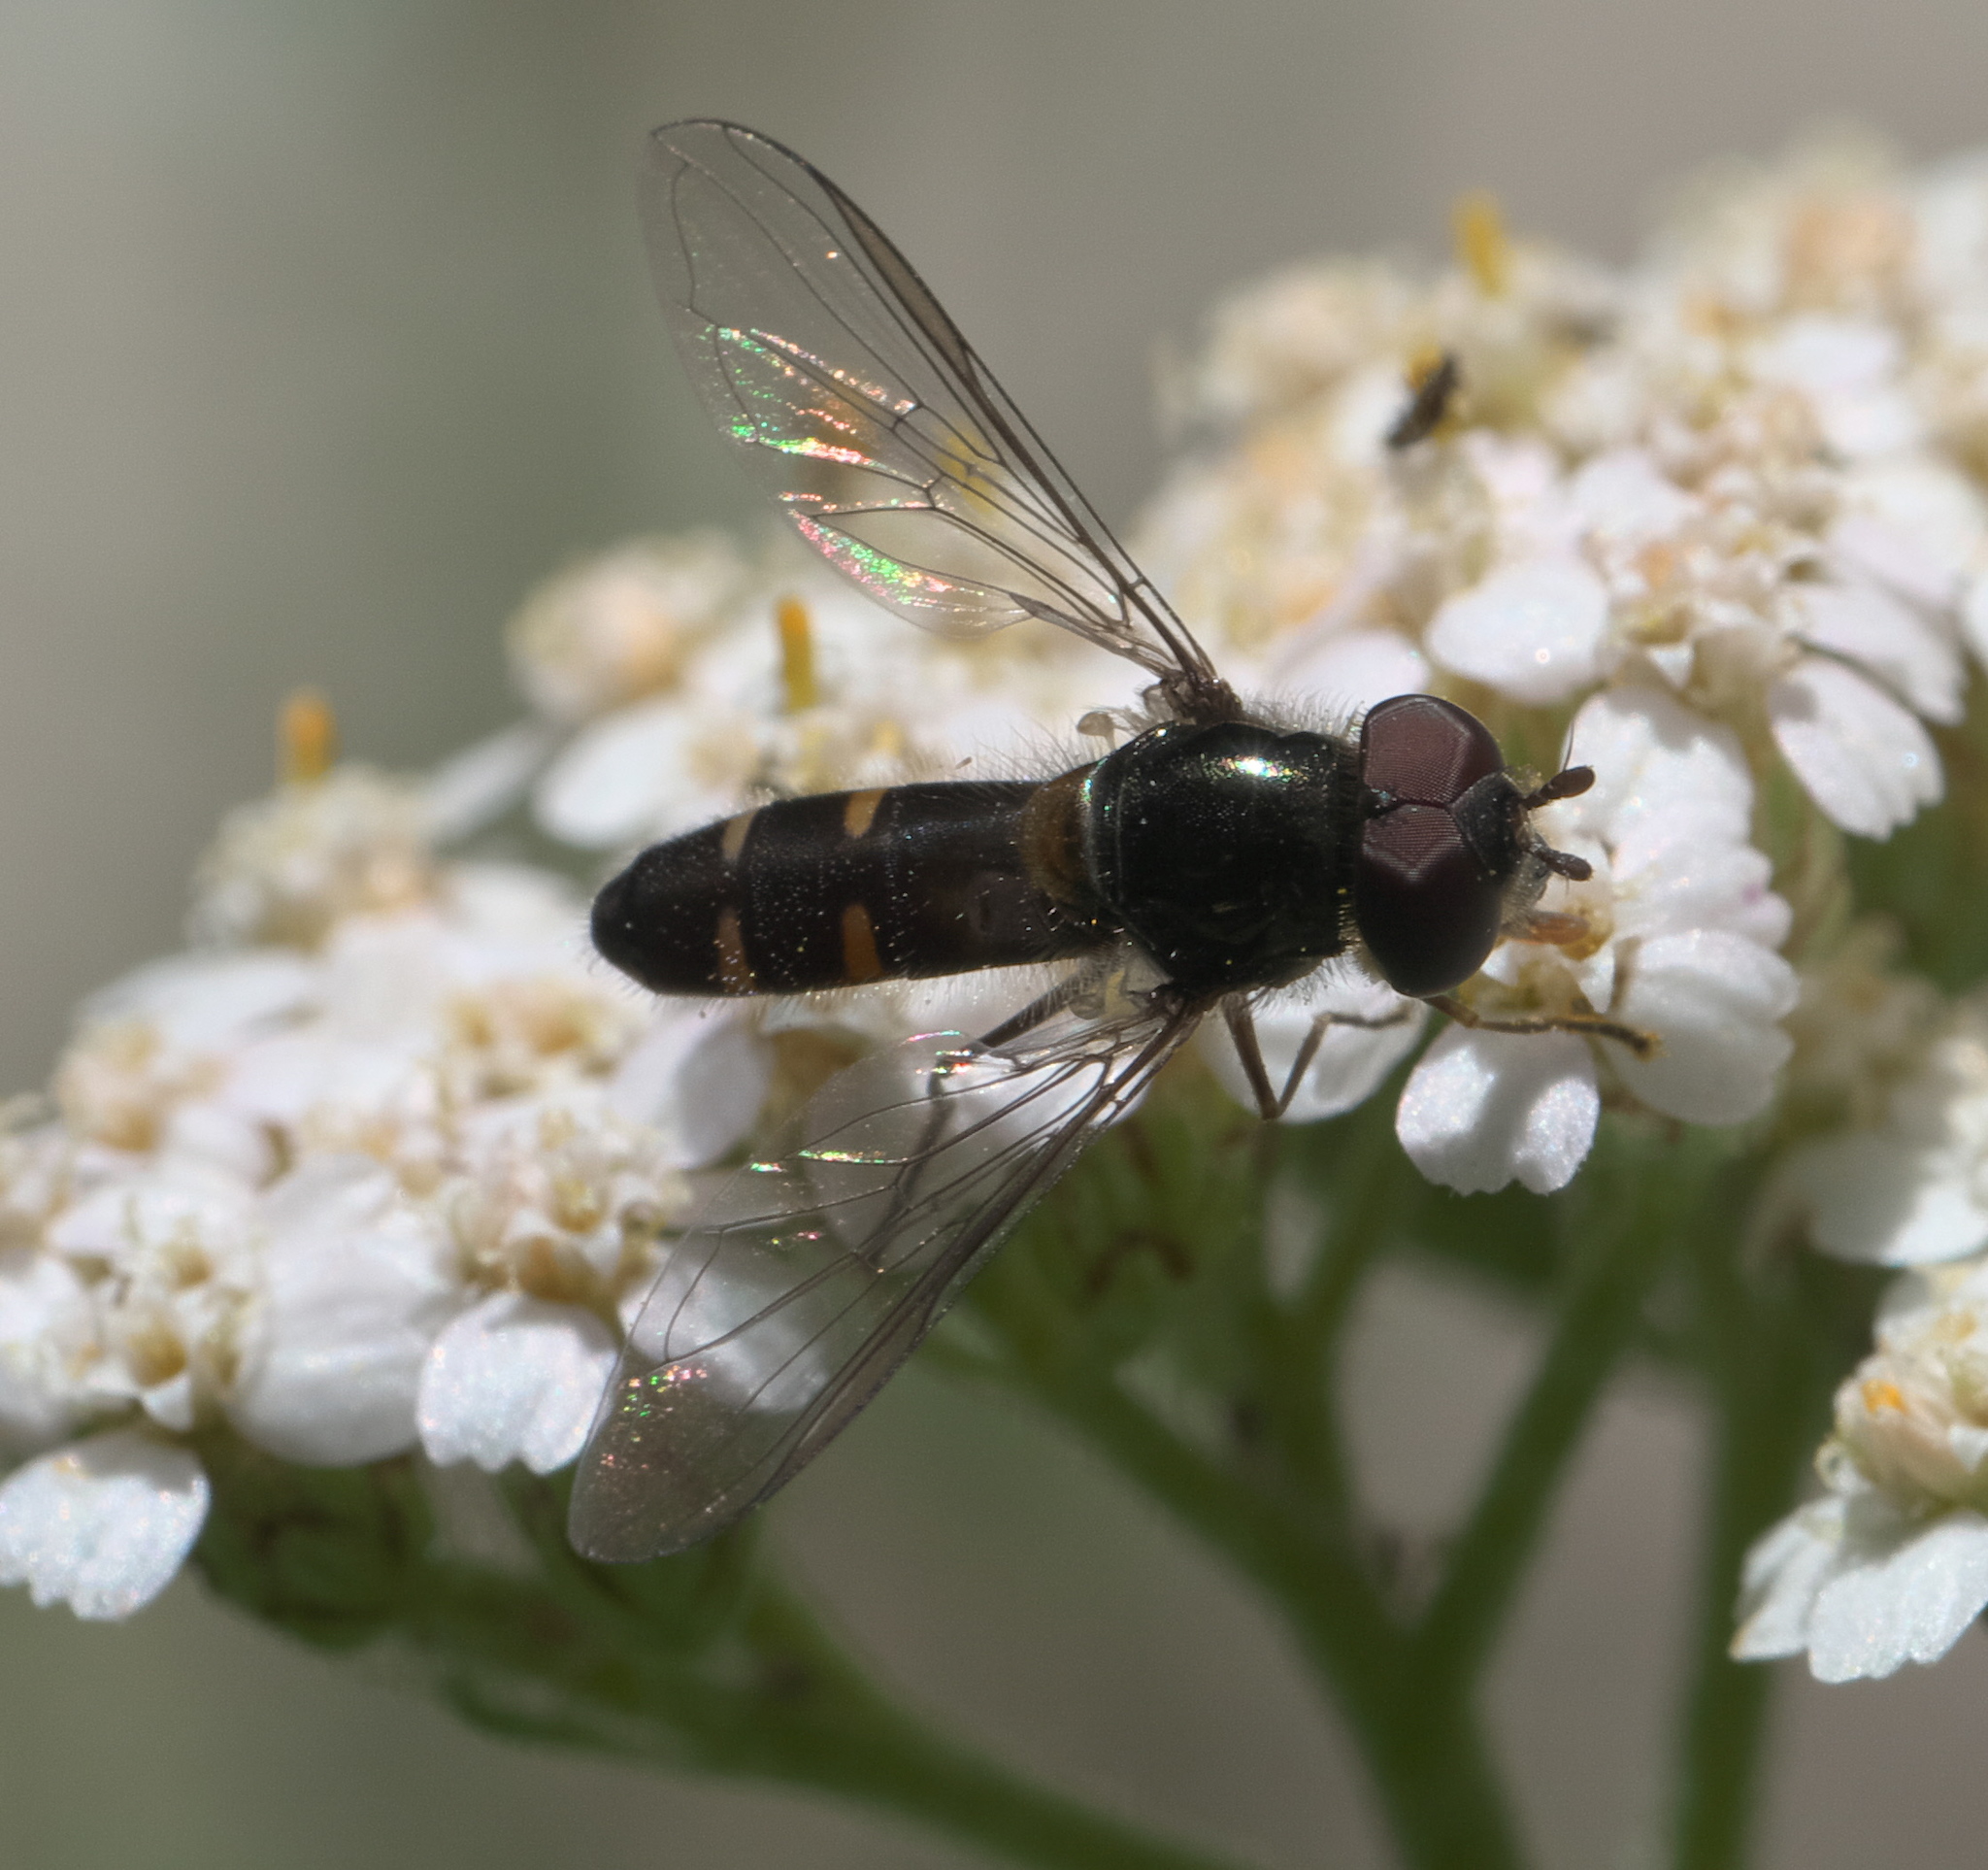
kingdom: Animalia
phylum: Arthropoda
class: Insecta
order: Diptera
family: Syrphidae
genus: Melangyna
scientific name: Melangyna novaezelandiae
